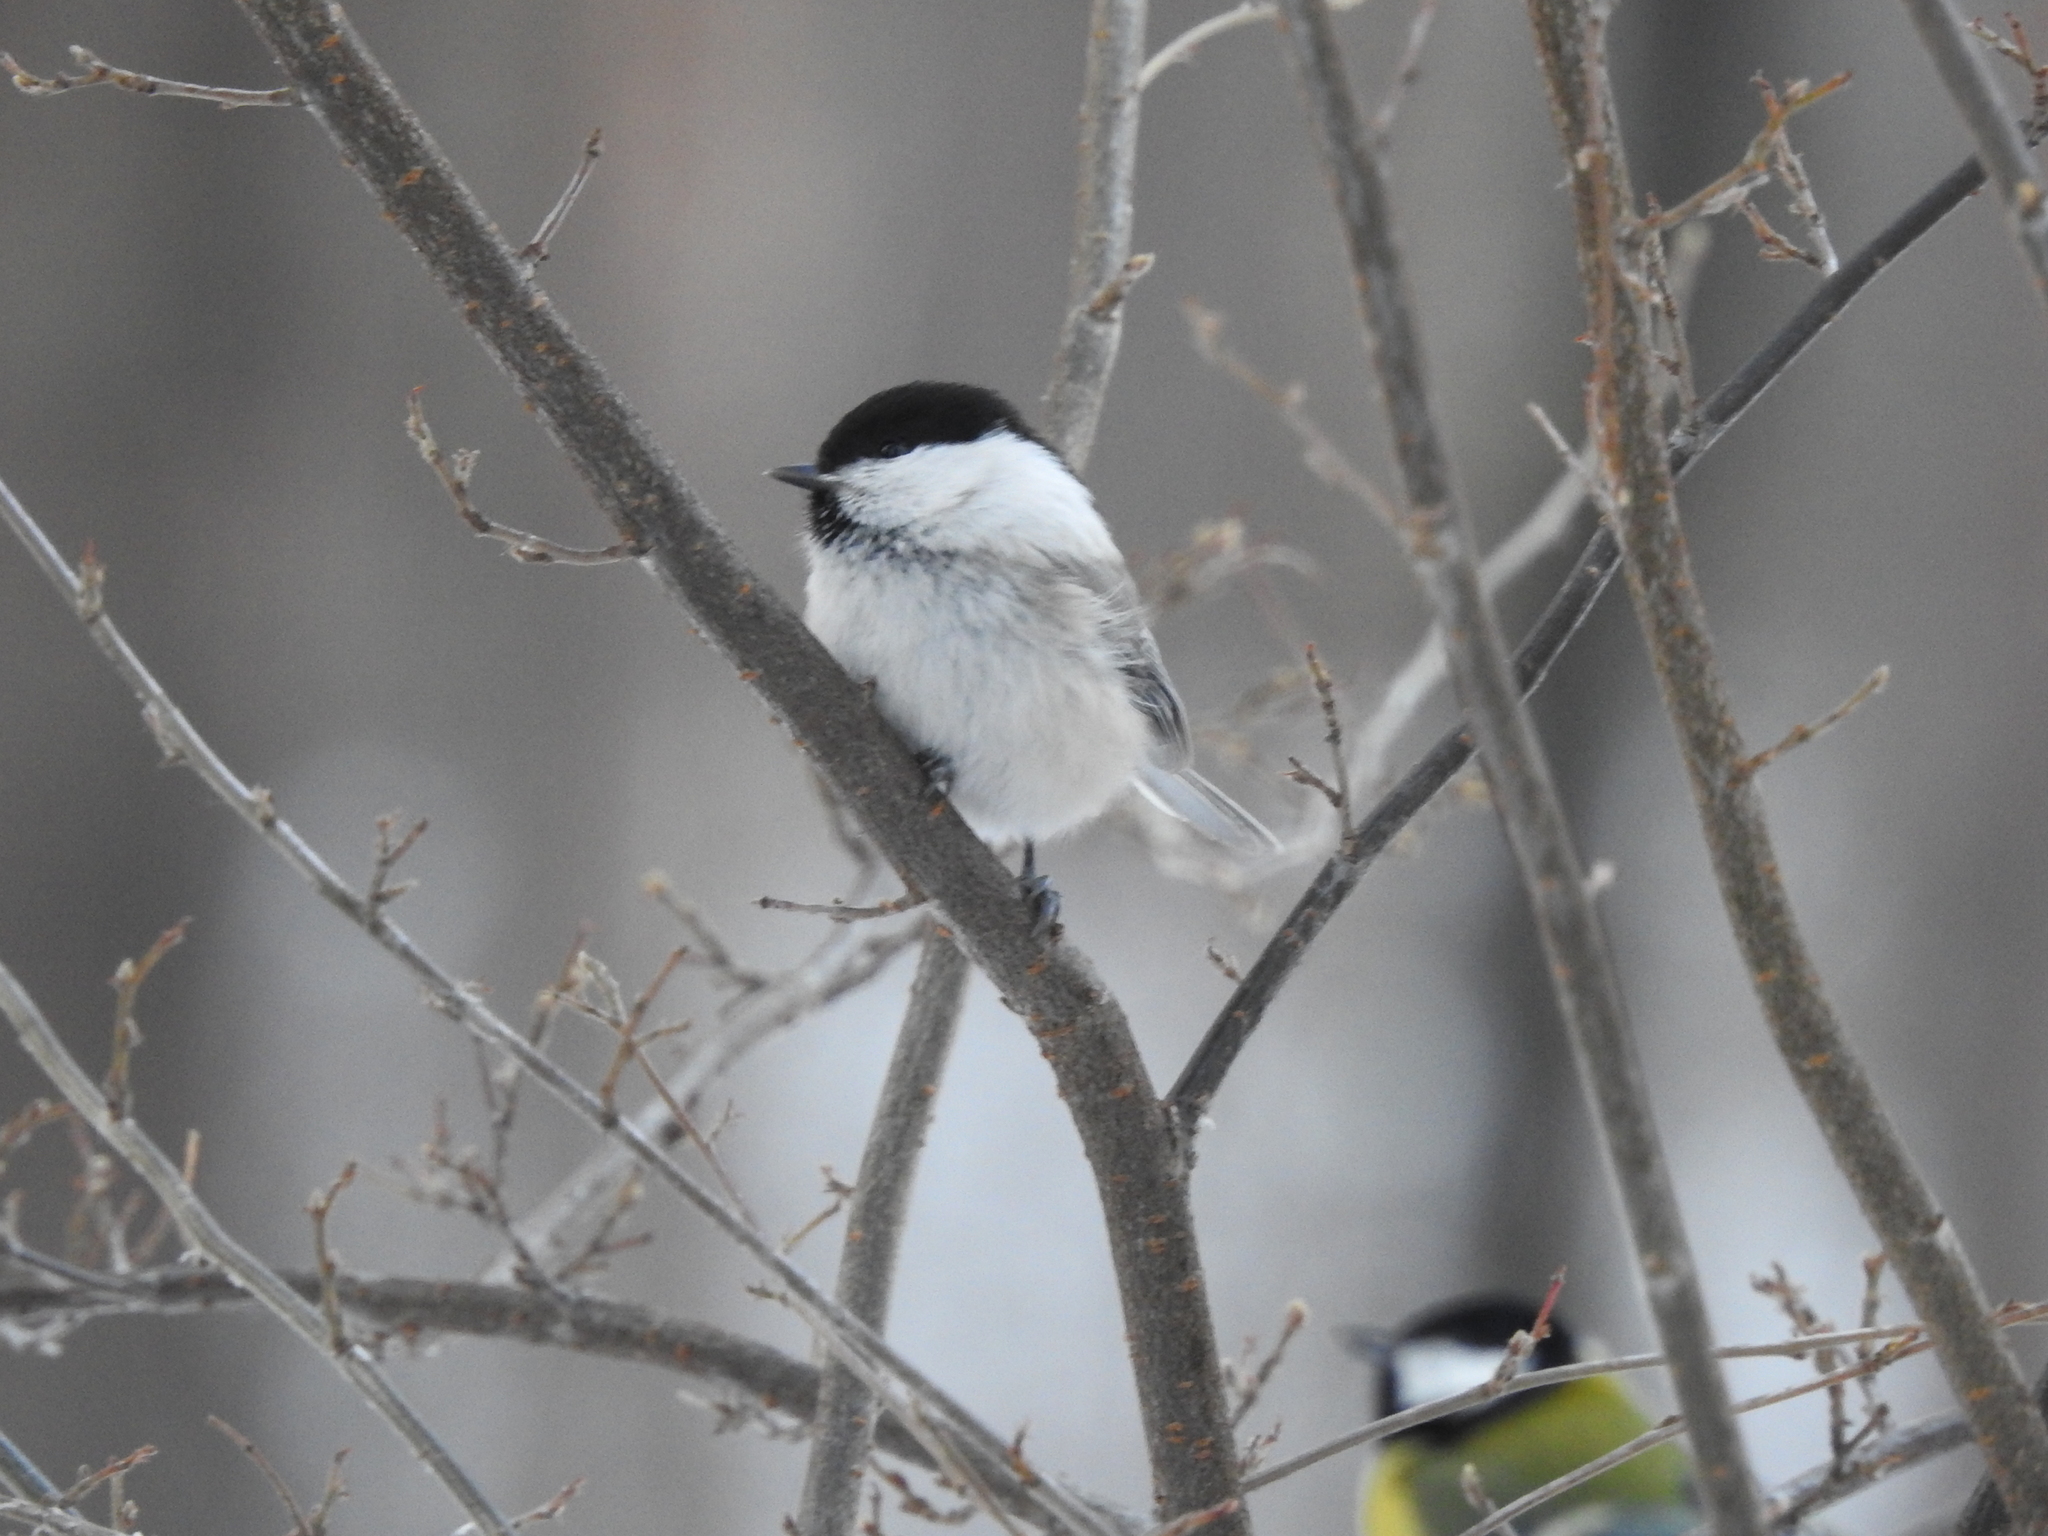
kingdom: Animalia
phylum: Chordata
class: Aves
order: Passeriformes
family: Paridae
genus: Poecile
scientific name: Poecile montanus
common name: Willow tit
